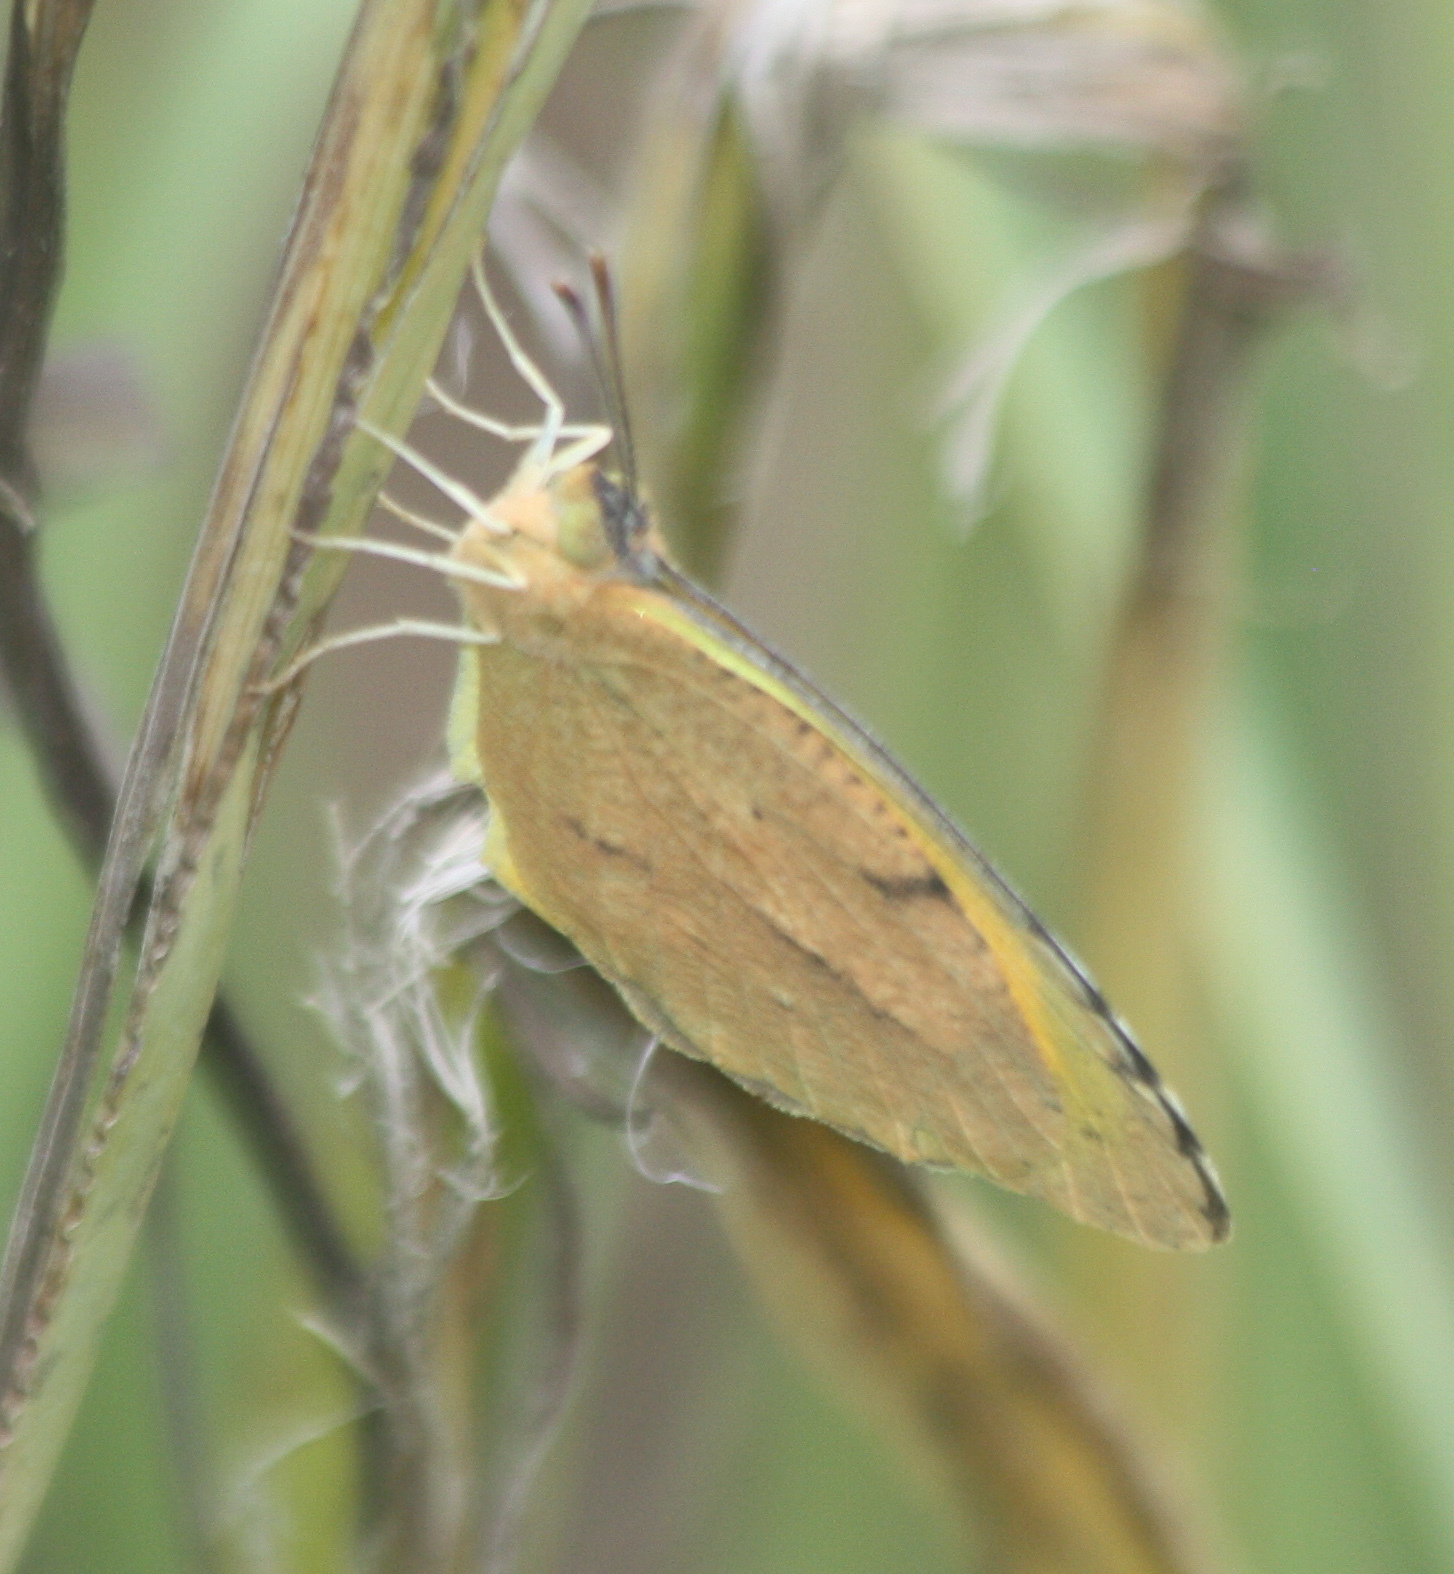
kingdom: Animalia
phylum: Arthropoda
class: Insecta
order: Lepidoptera
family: Pieridae
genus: Abaeis
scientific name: Abaeis nicippe
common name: Sleepy orange
